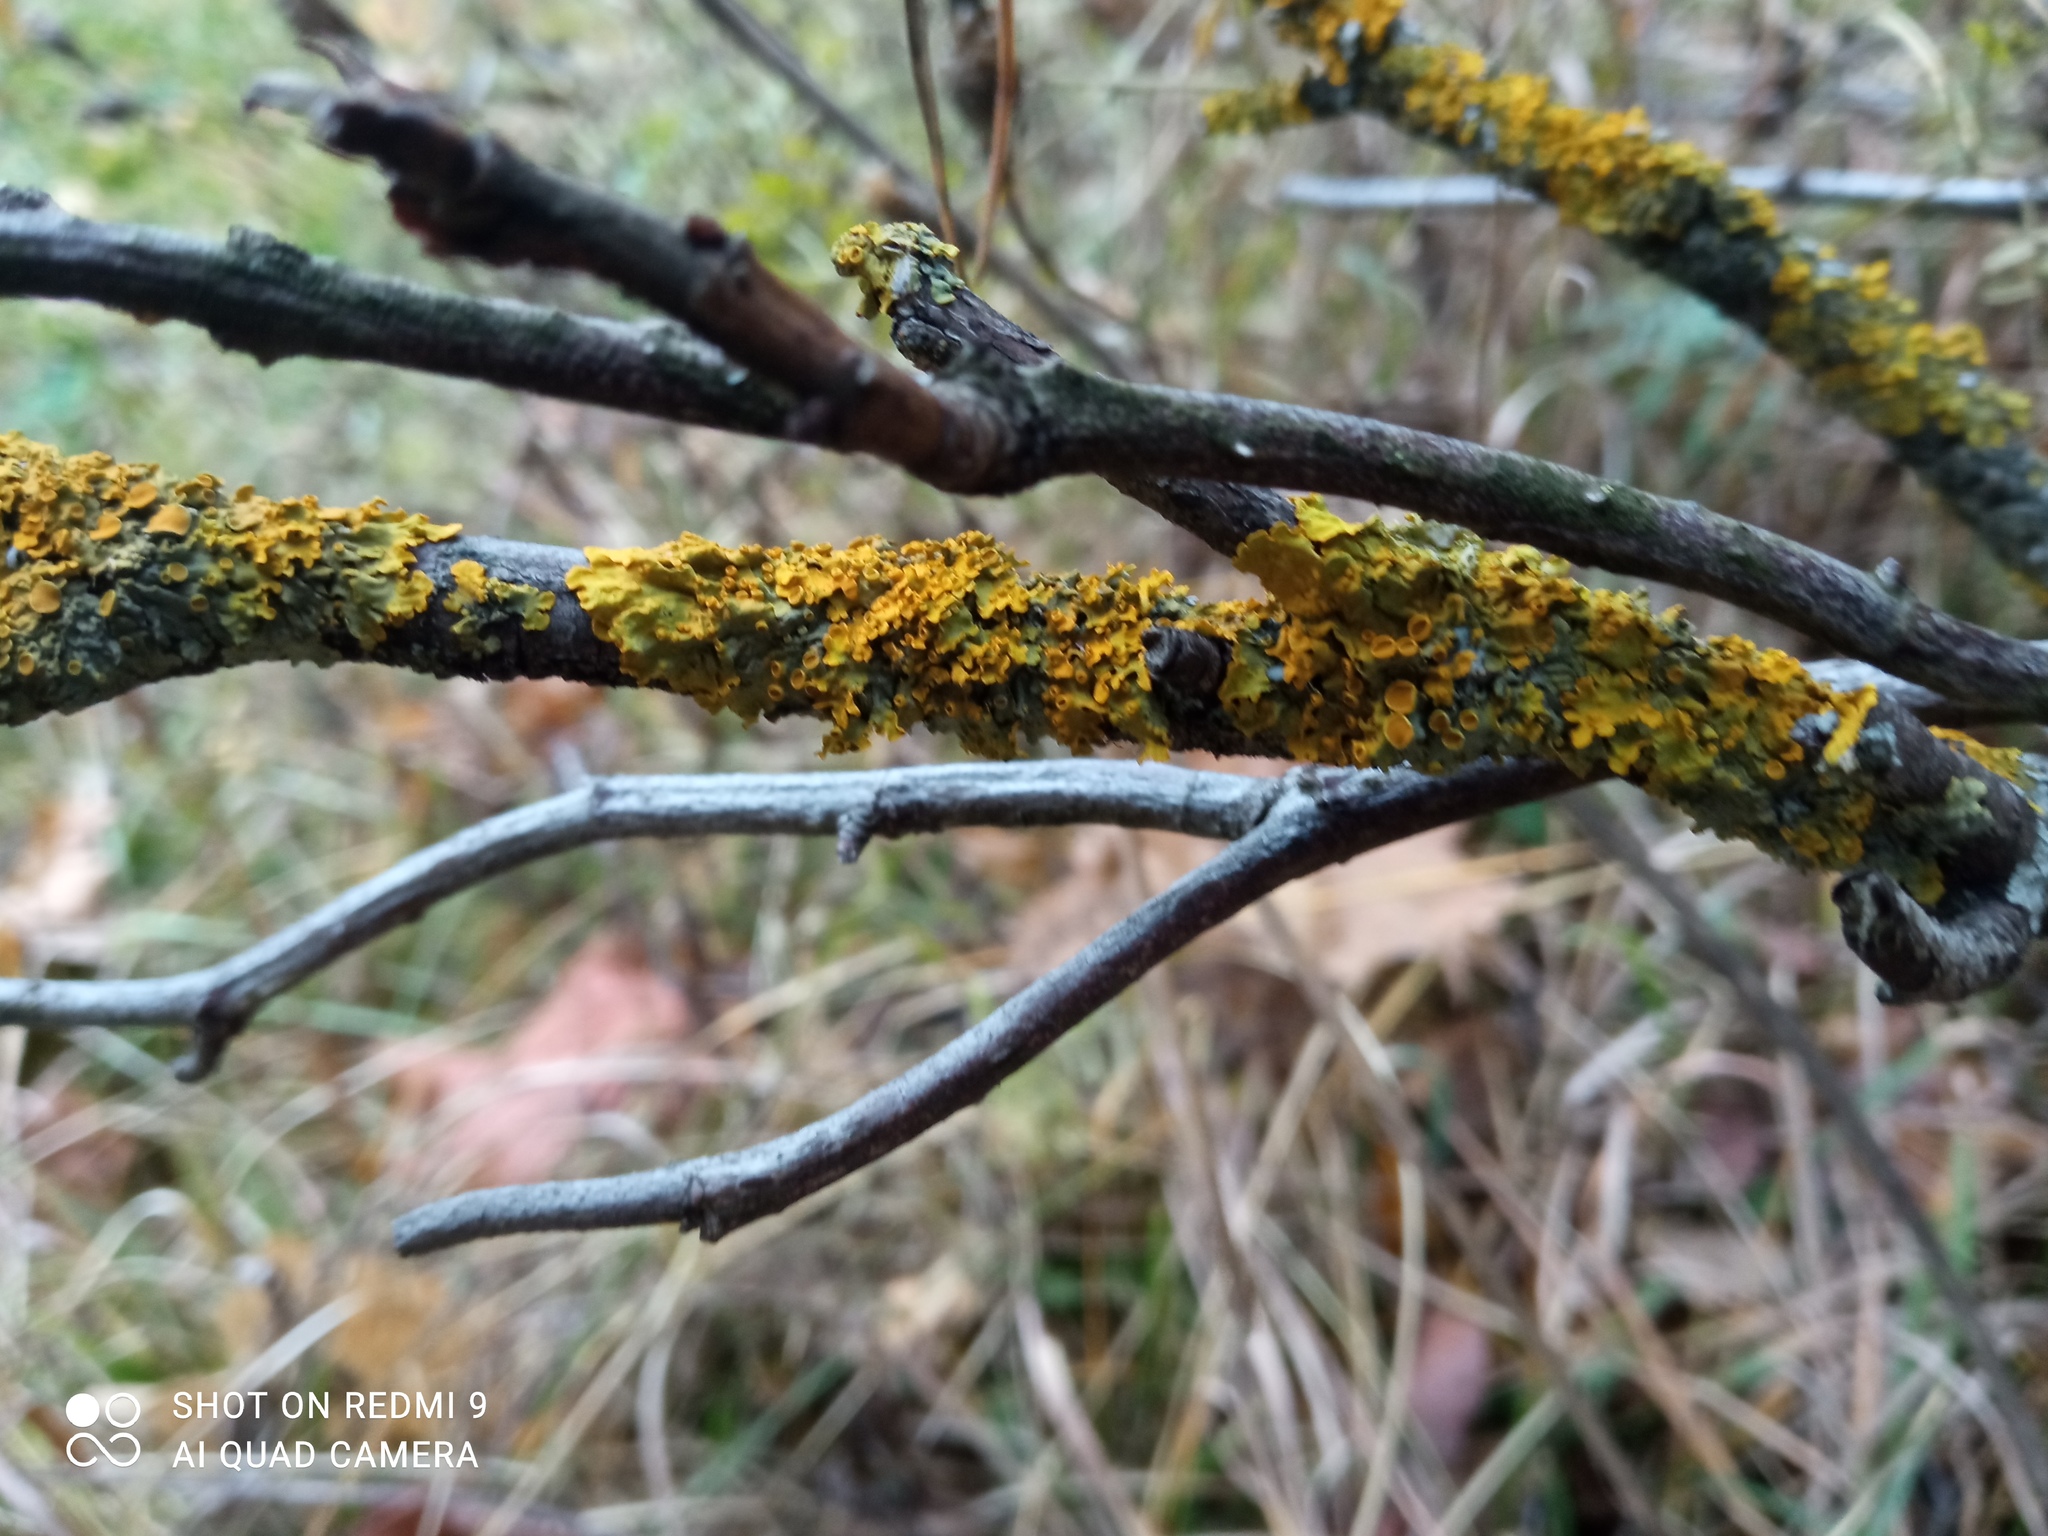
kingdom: Fungi
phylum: Ascomycota
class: Lecanoromycetes
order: Teloschistales
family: Teloschistaceae
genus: Xanthoria
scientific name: Xanthoria parietina
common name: Common orange lichen
